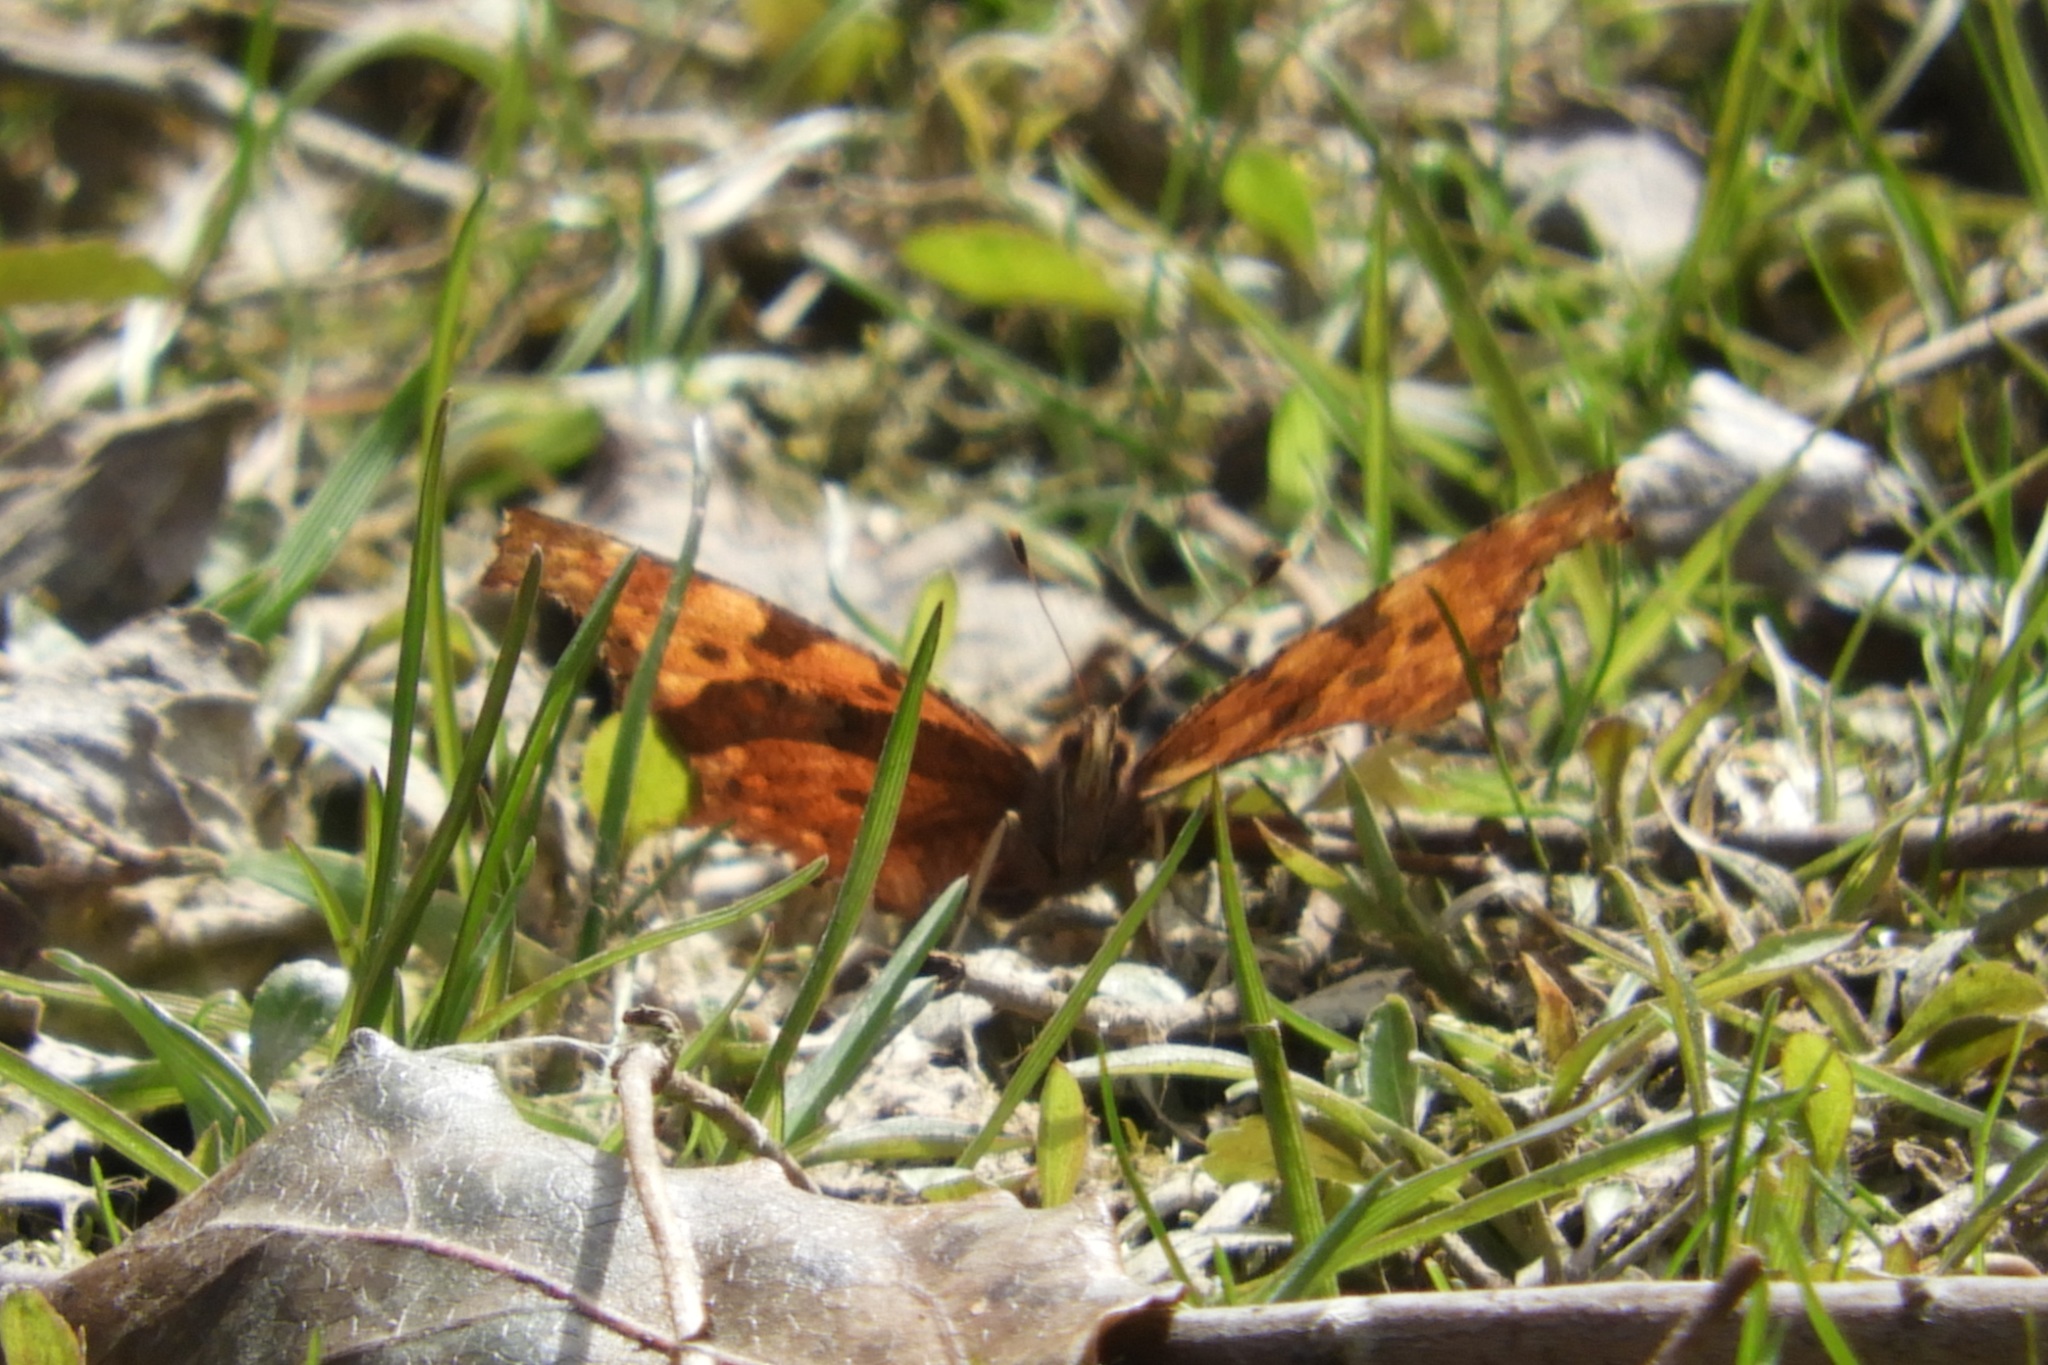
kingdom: Animalia
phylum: Arthropoda
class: Insecta
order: Lepidoptera
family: Nymphalidae
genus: Polygonia
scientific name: Polygonia comma
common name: Eastern comma
